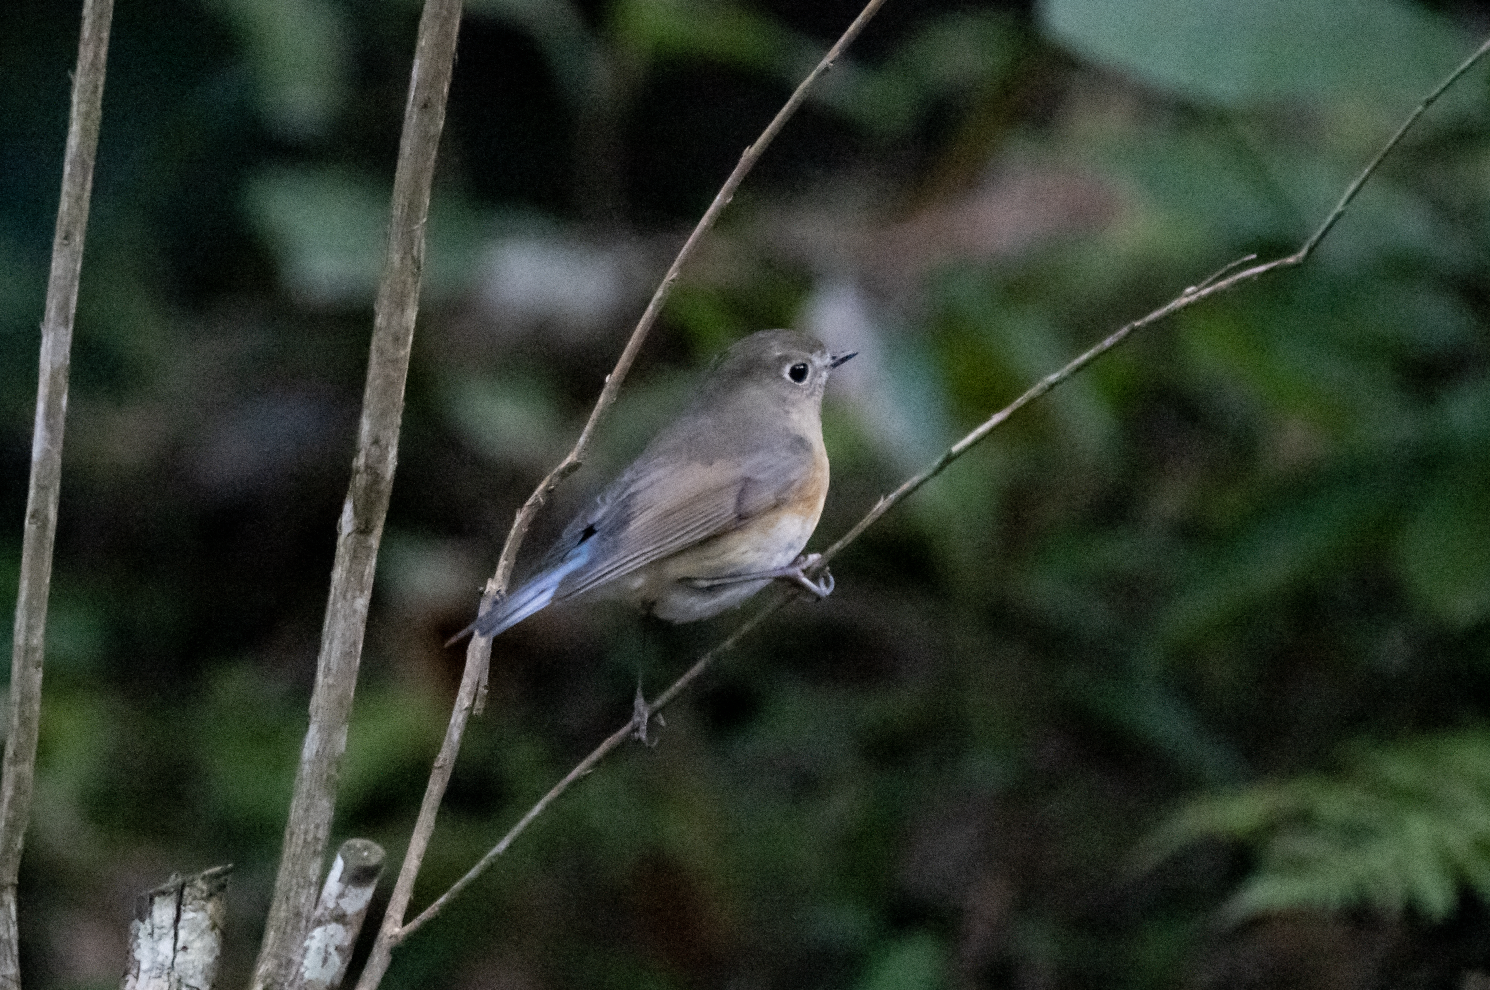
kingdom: Animalia
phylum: Chordata
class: Aves
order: Passeriformes
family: Muscicapidae
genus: Tarsiger
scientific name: Tarsiger cyanurus
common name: Red-flanked bluetail
